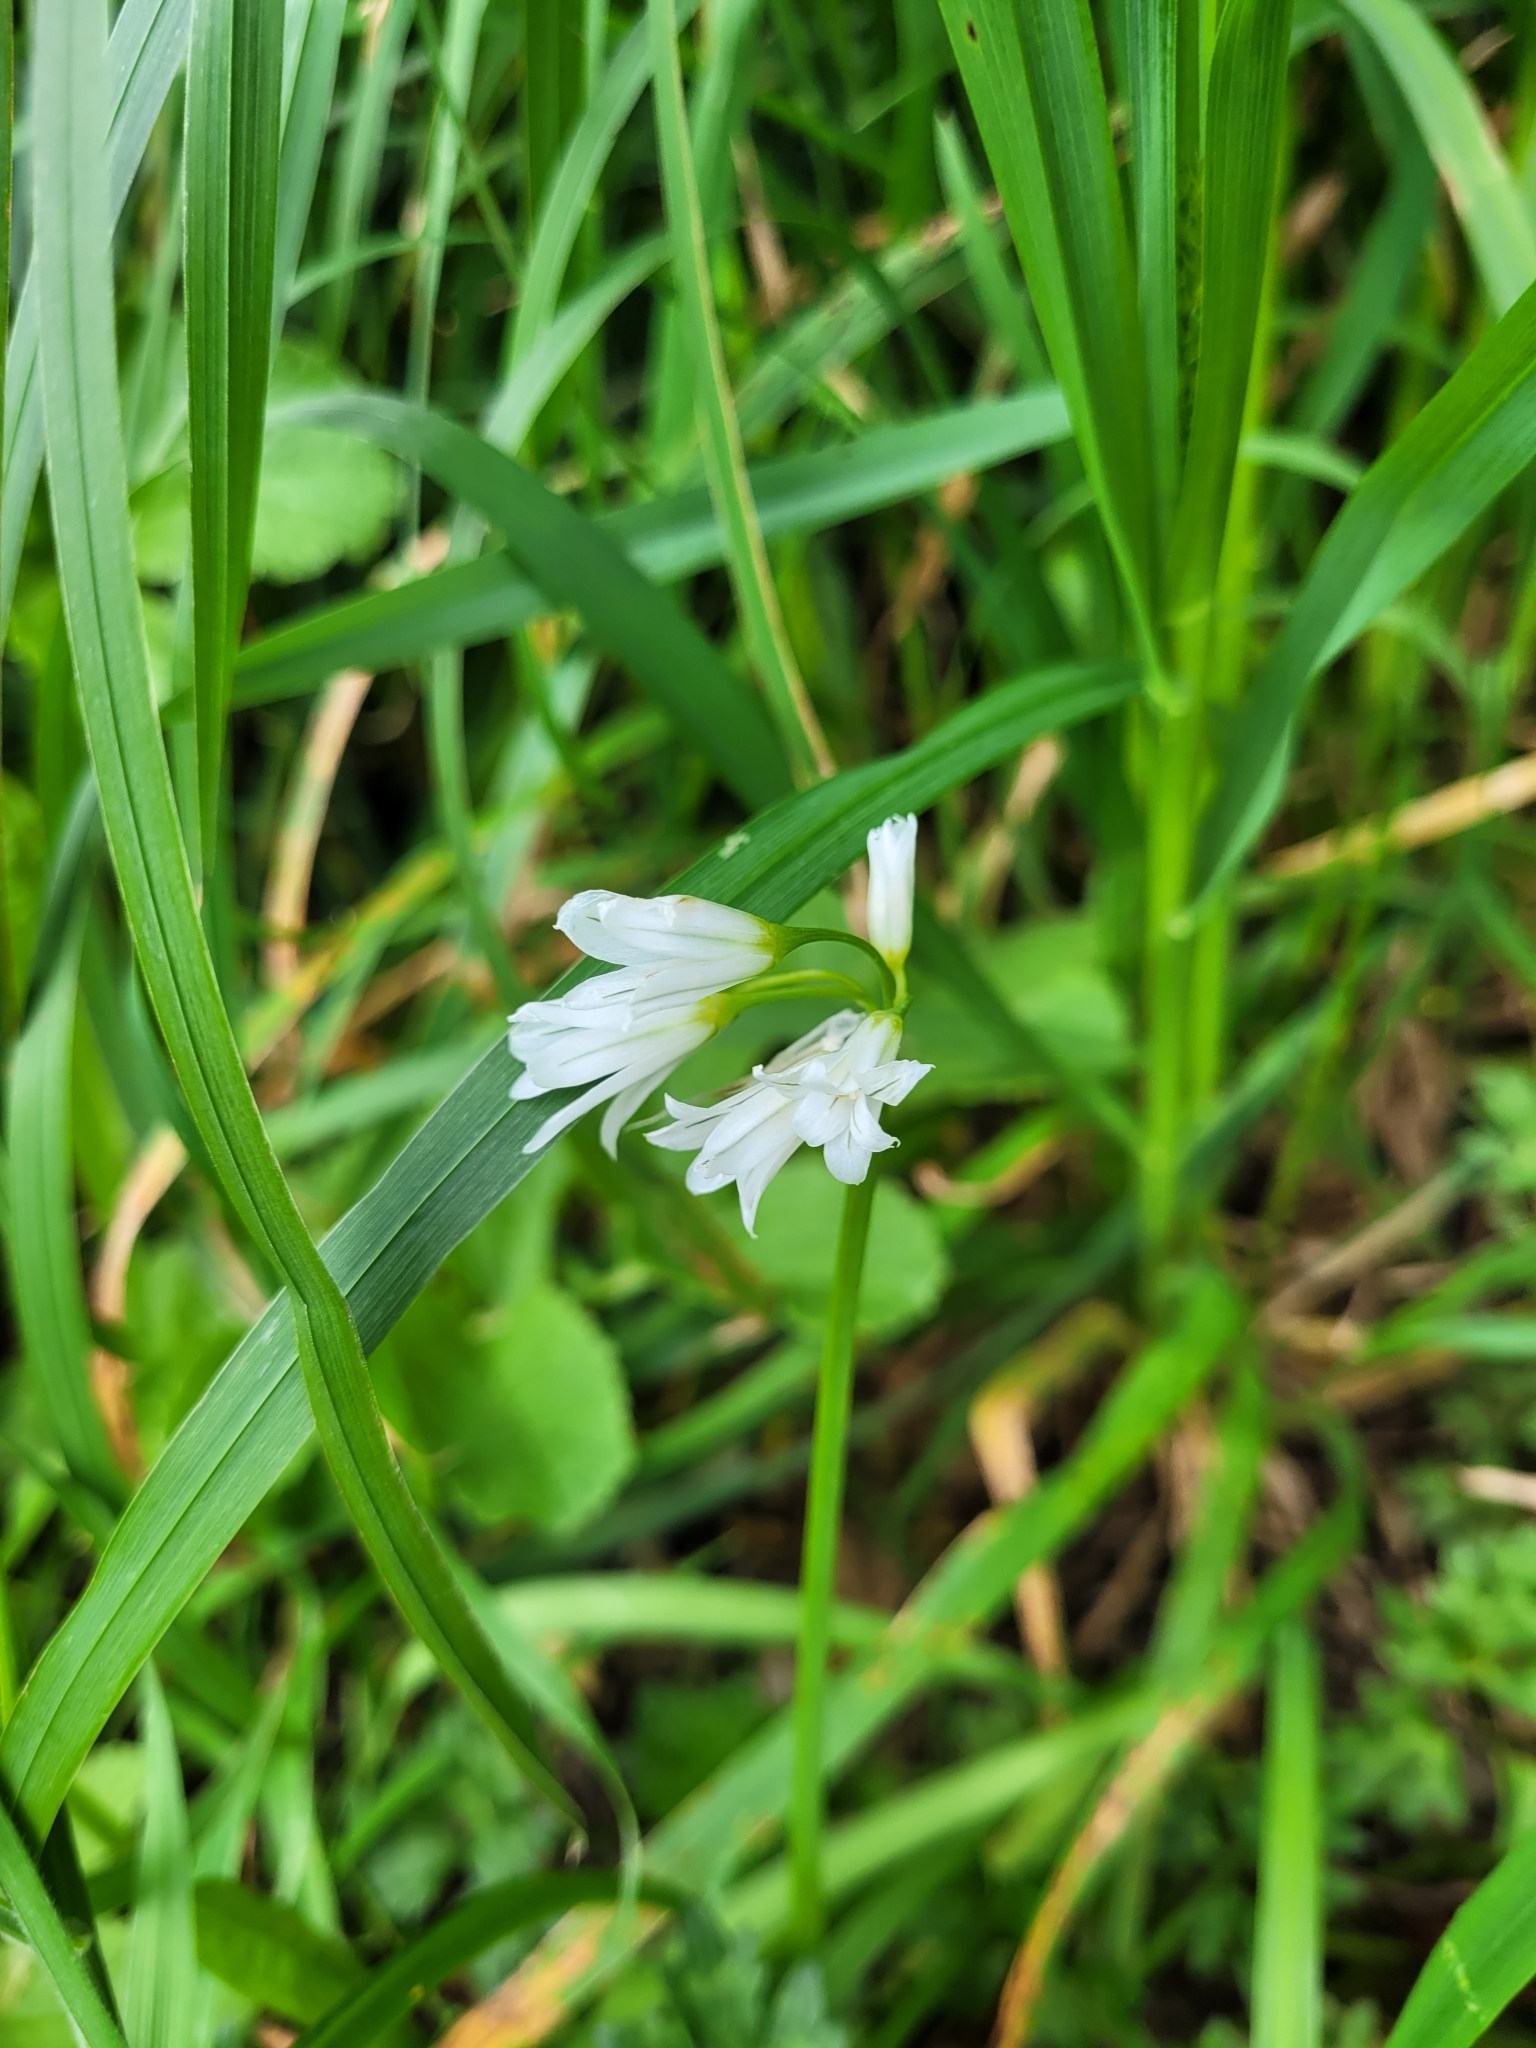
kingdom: Plantae
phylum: Tracheophyta
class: Liliopsida
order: Asparagales
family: Amaryllidaceae
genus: Allium
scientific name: Allium triquetrum
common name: Three-cornered garlic
